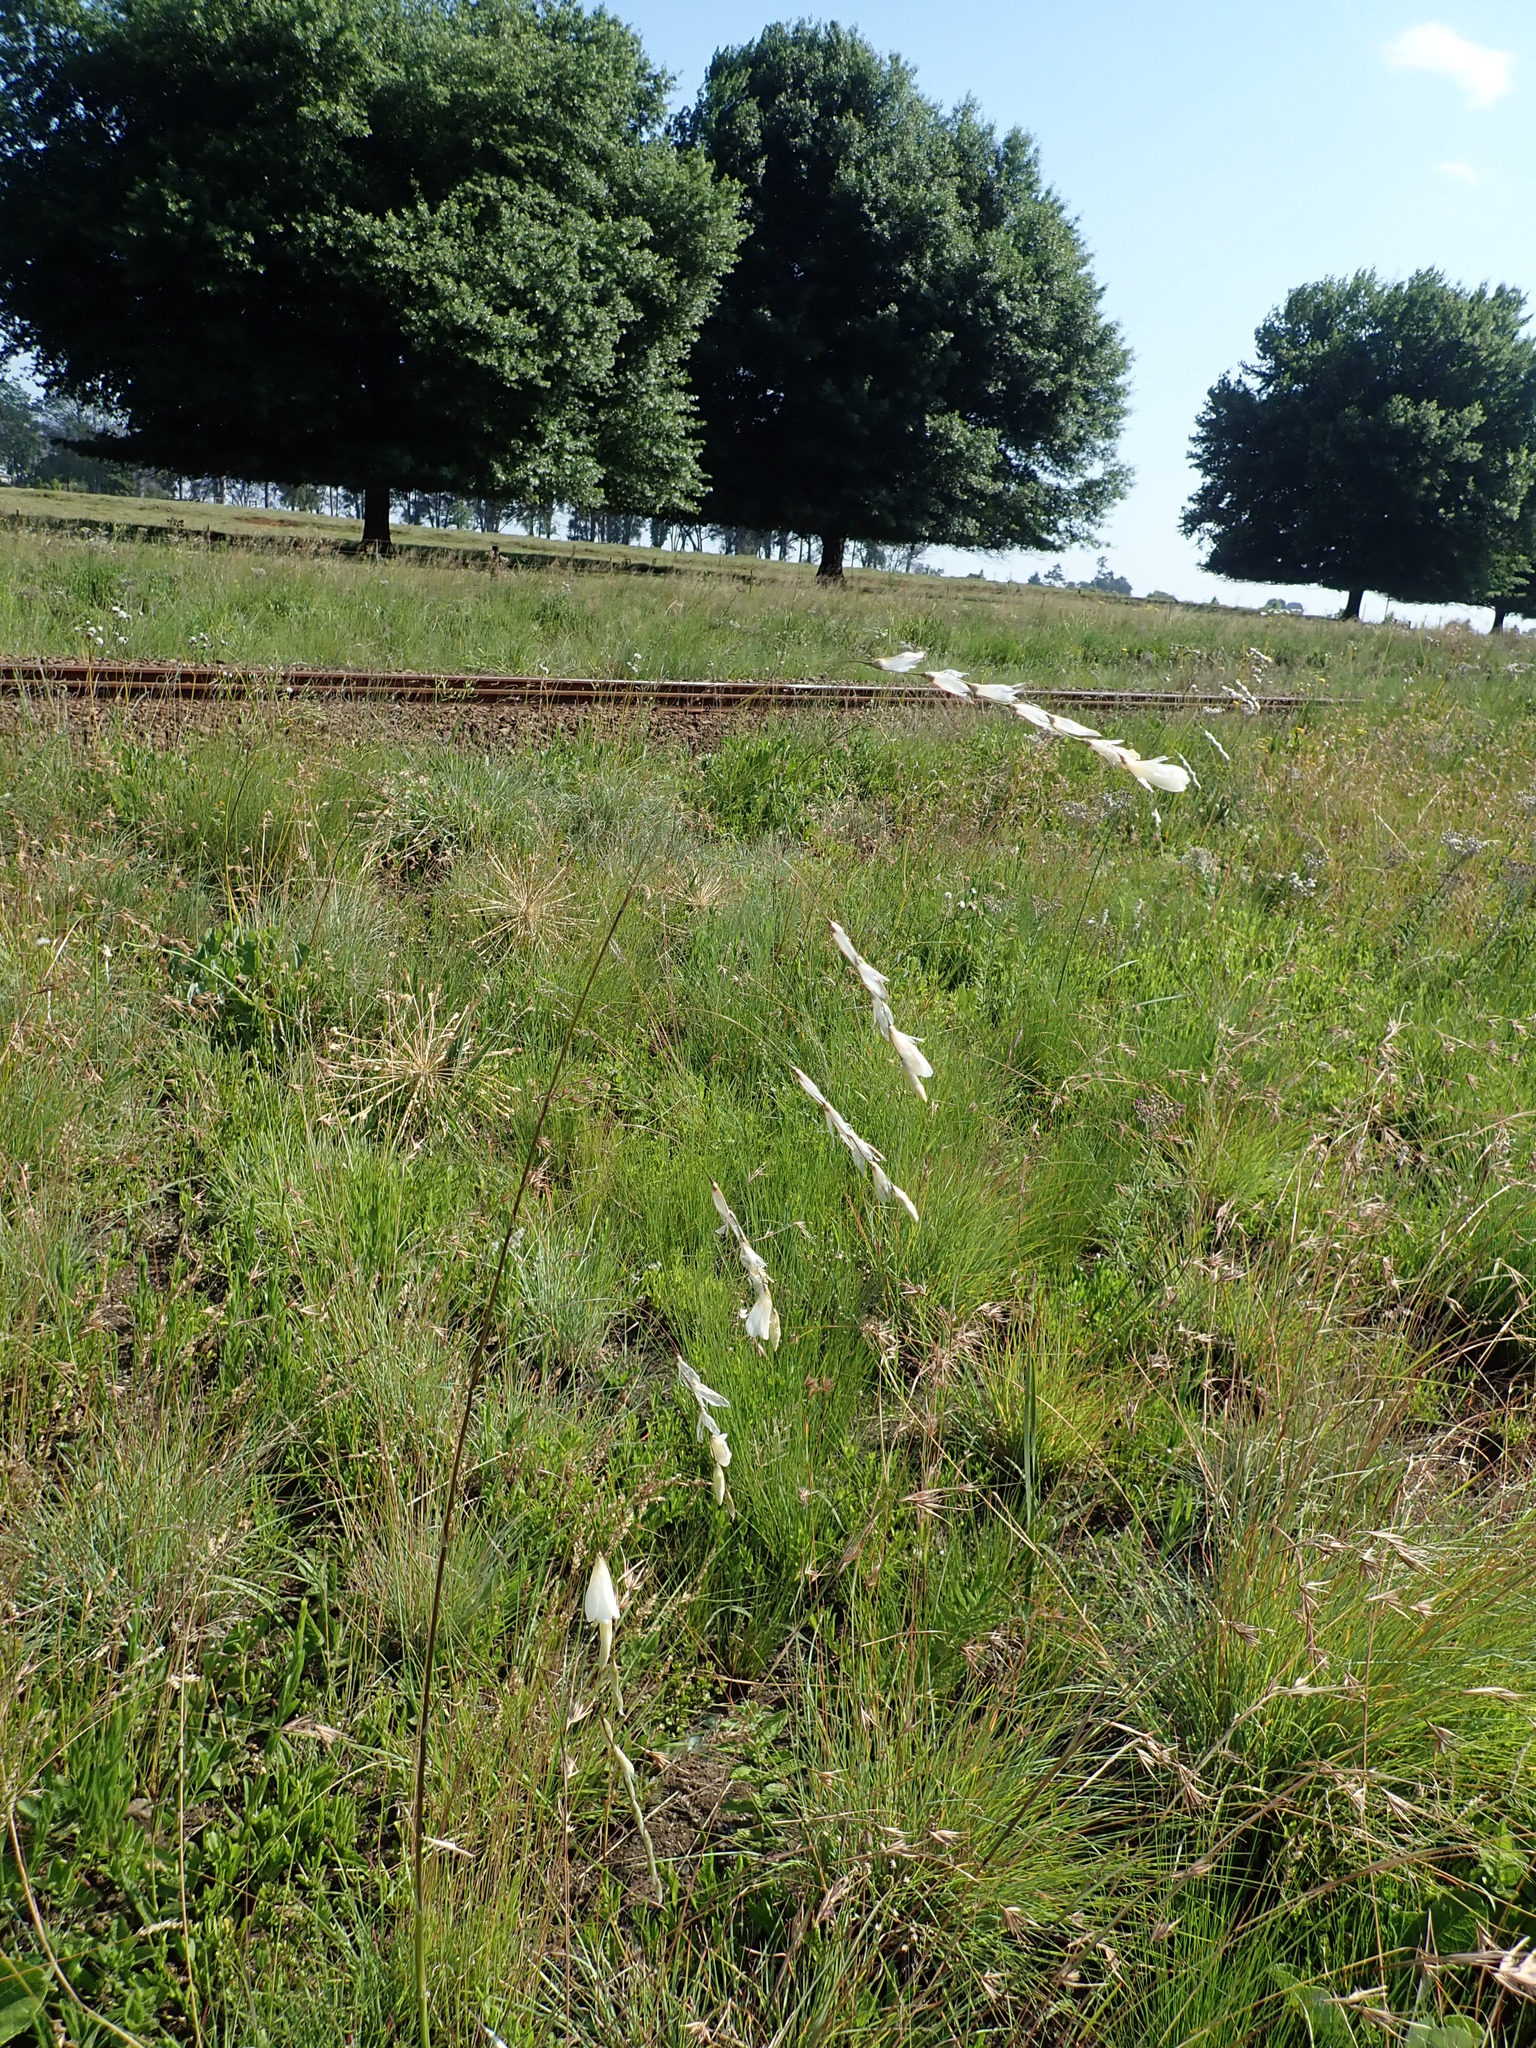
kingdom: Plantae
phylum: Tracheophyta
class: Liliopsida
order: Asparagales
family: Iridaceae
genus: Dierama
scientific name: Dierama pallidum
